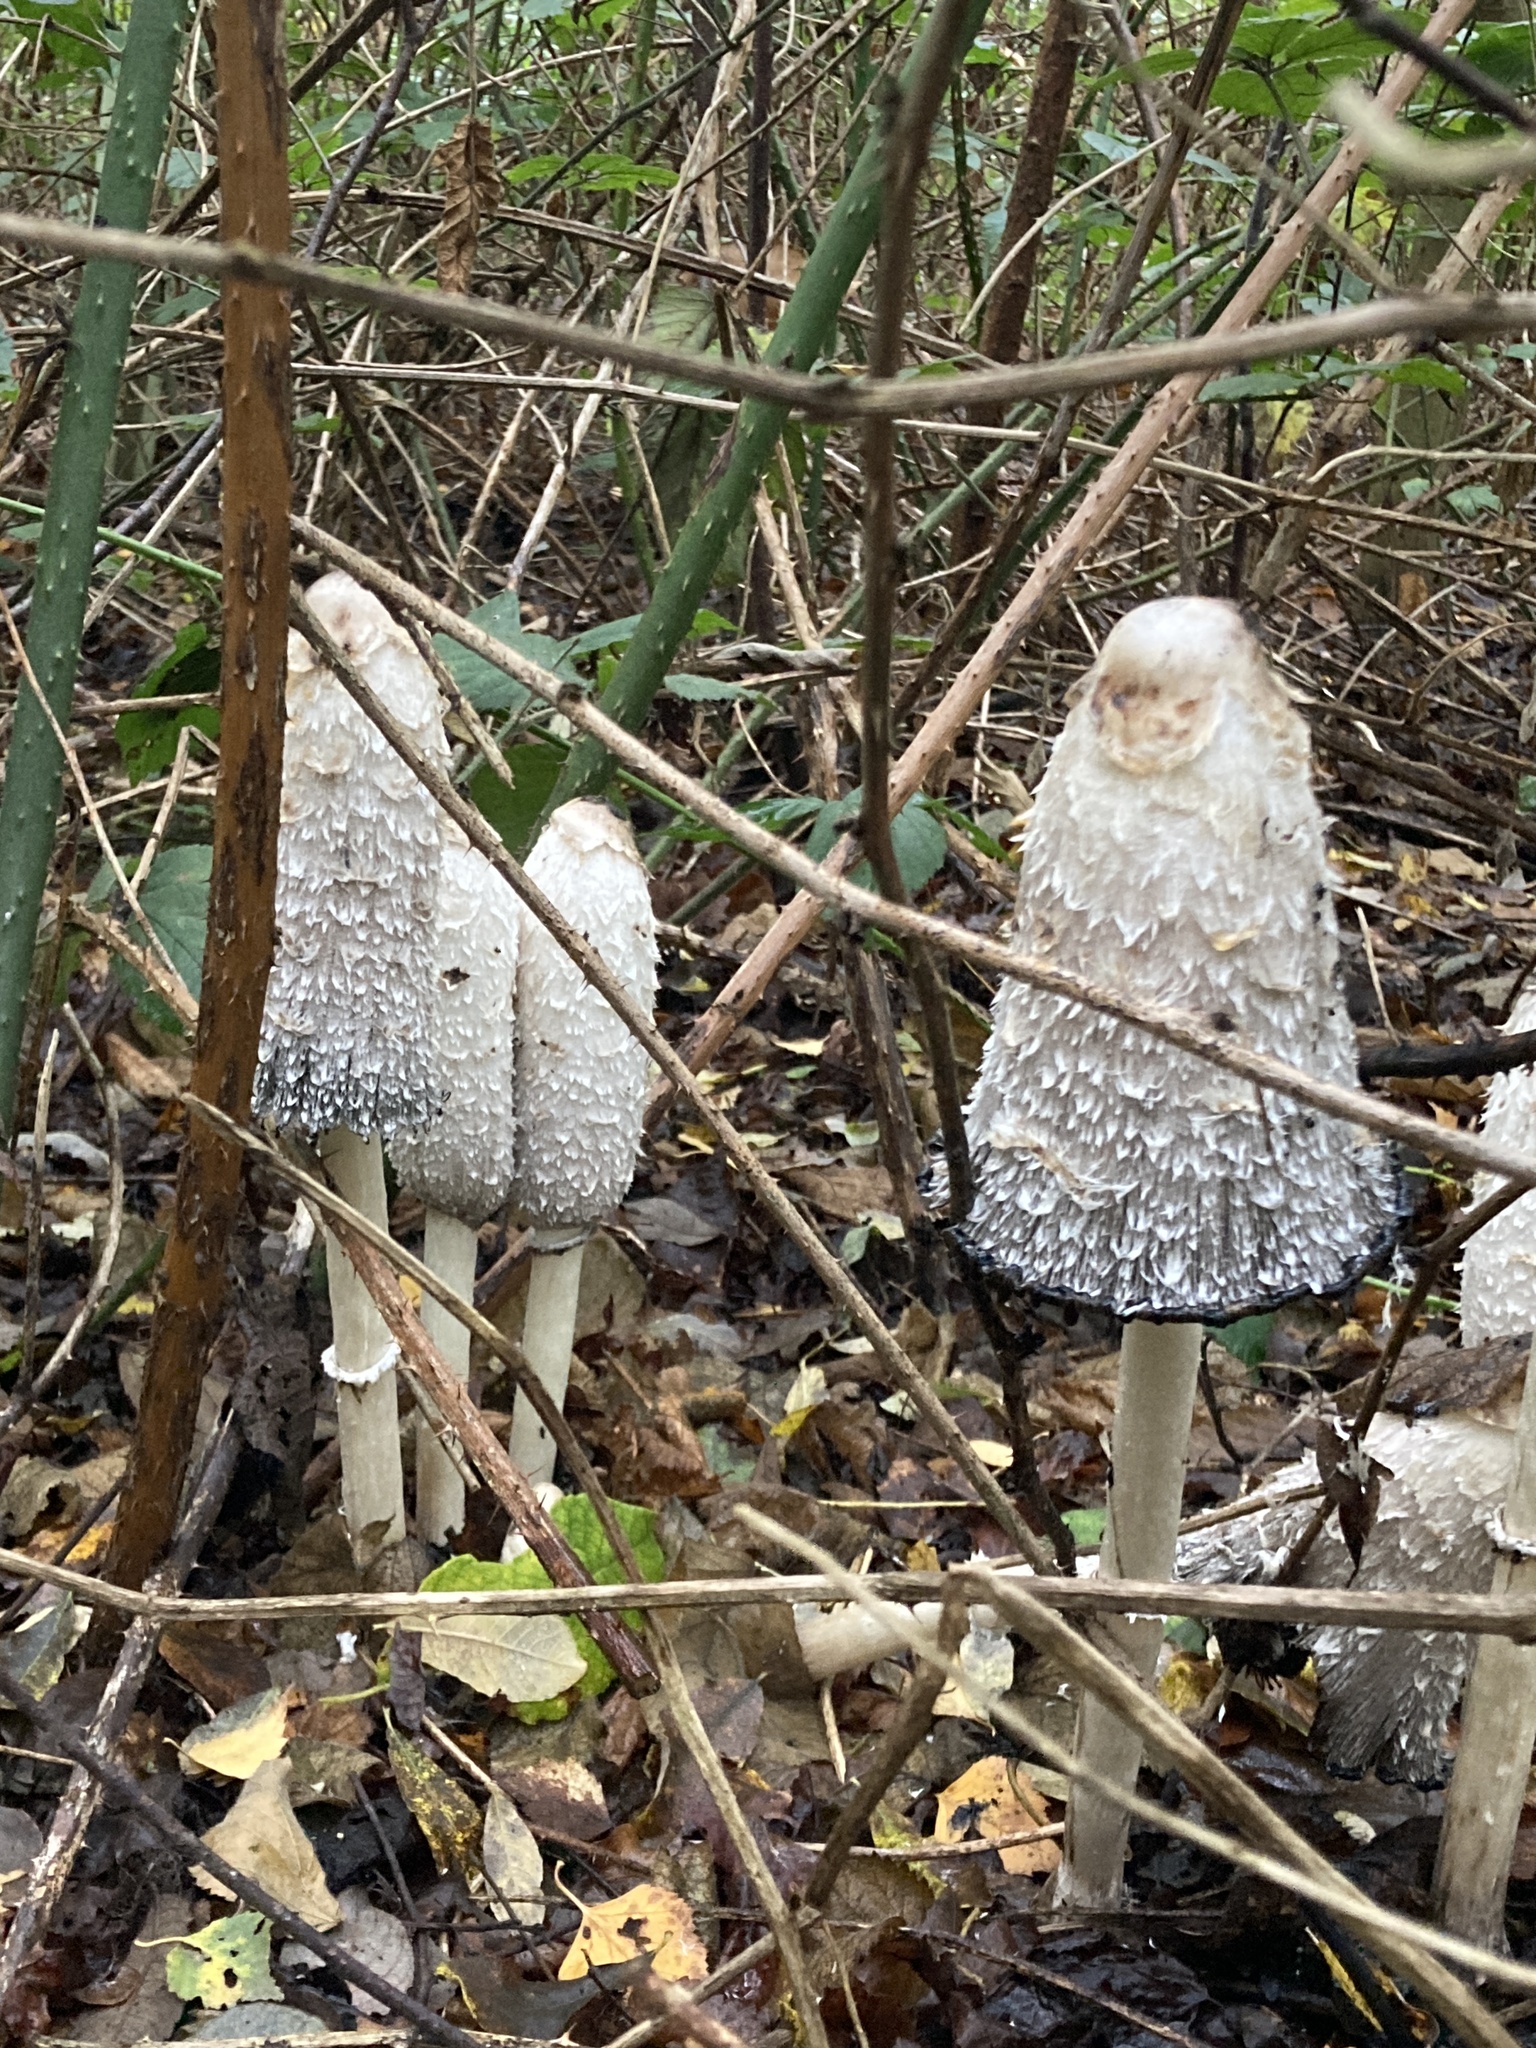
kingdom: Fungi
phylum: Basidiomycota
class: Agaricomycetes
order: Agaricales
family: Agaricaceae
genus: Coprinus
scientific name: Coprinus comatus
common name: Lawyer's wig
